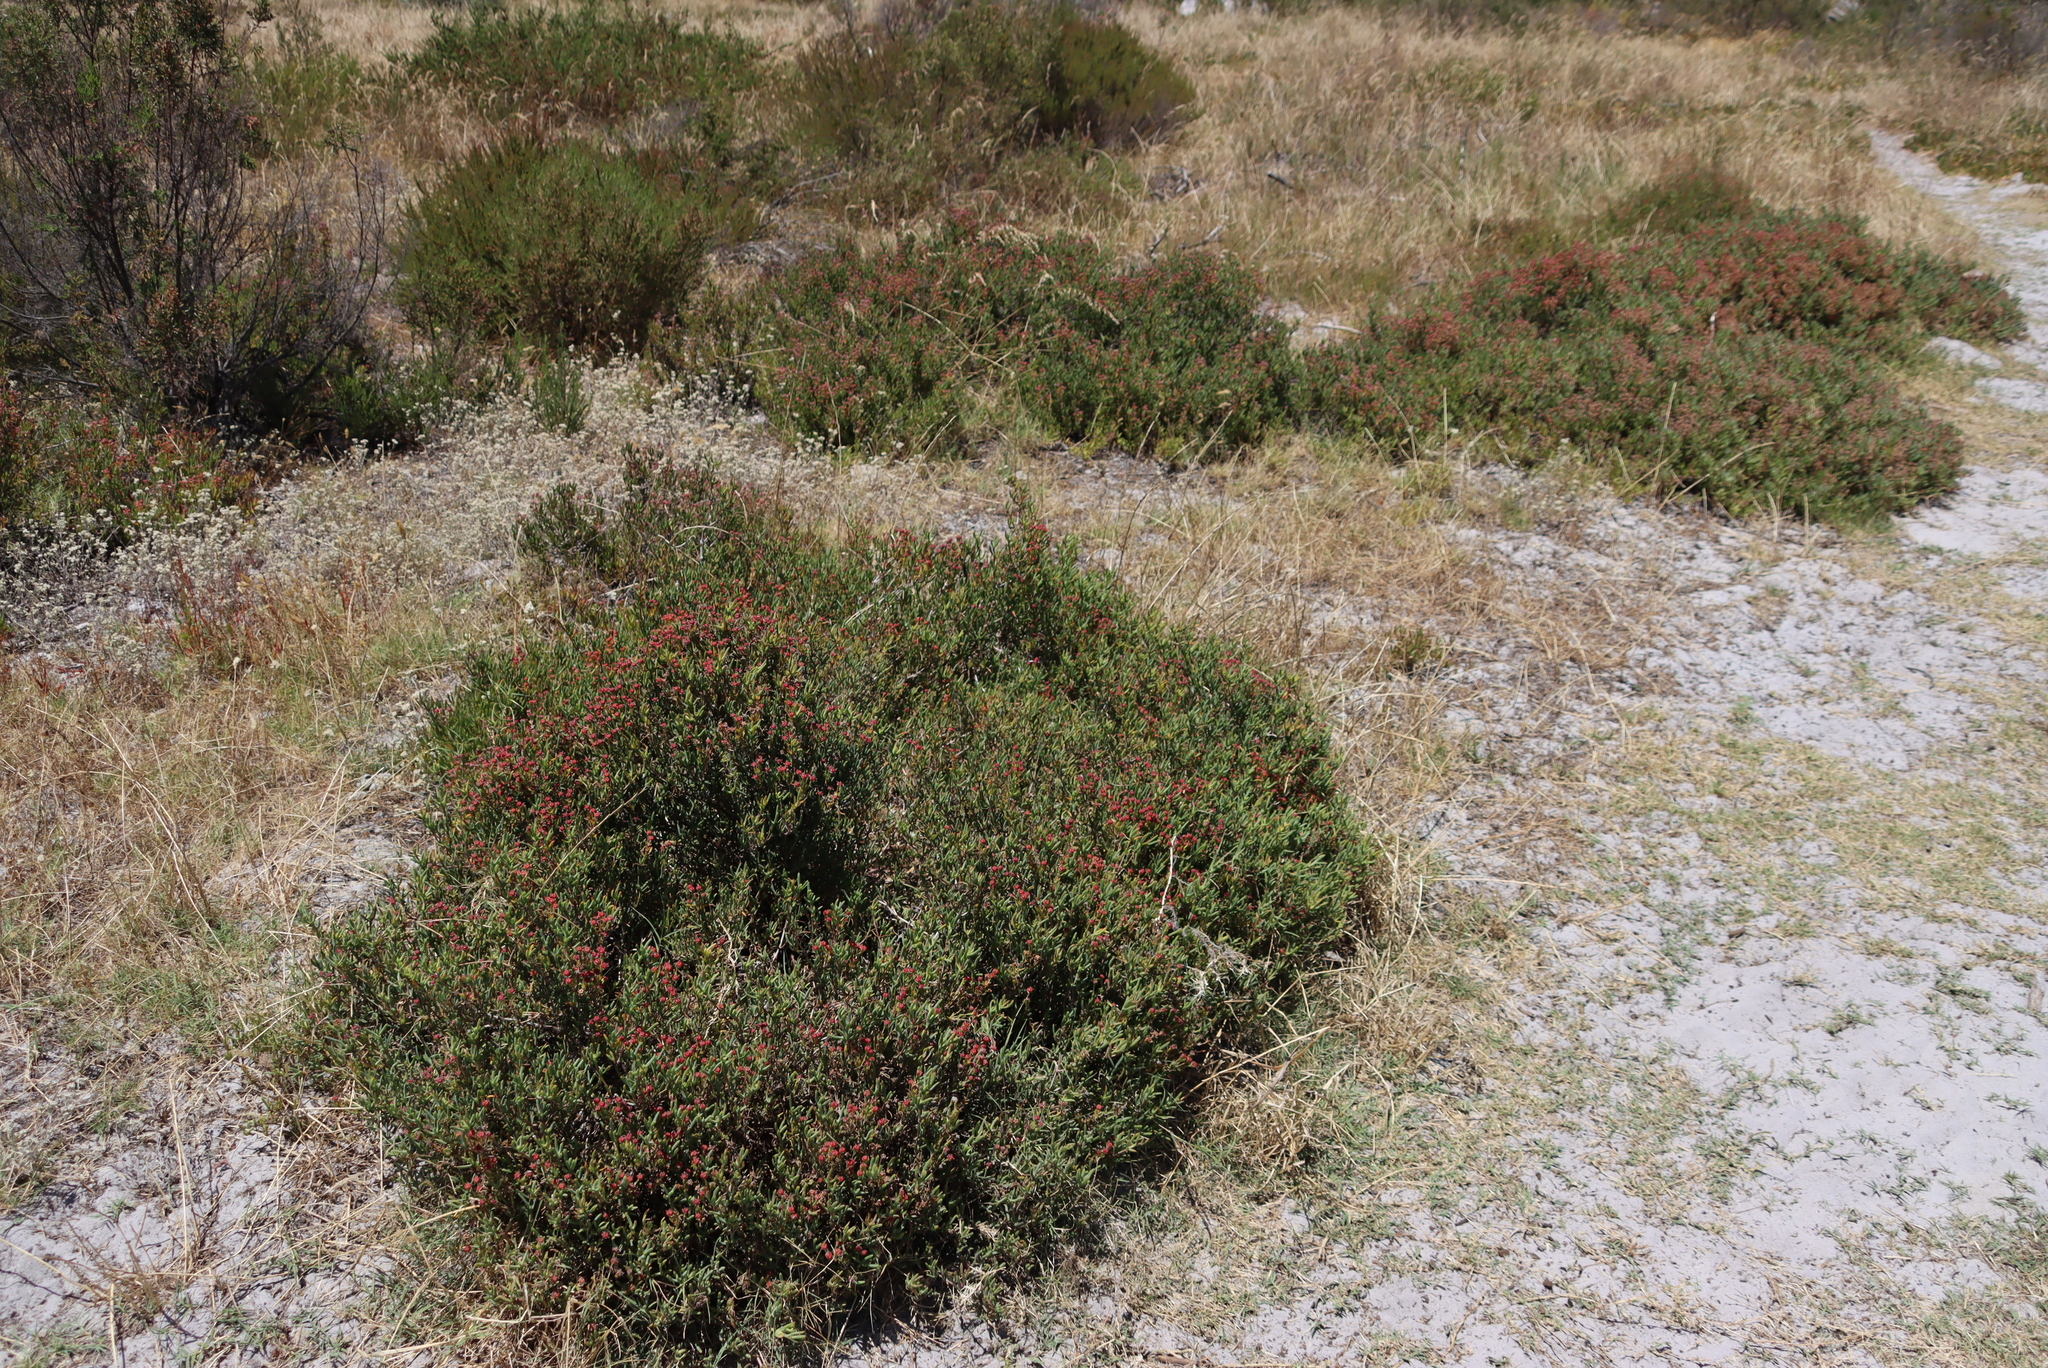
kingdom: Plantae
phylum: Tracheophyta
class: Magnoliopsida
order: Caryophyllales
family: Aizoaceae
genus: Ruschia
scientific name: Ruschia macowanii
